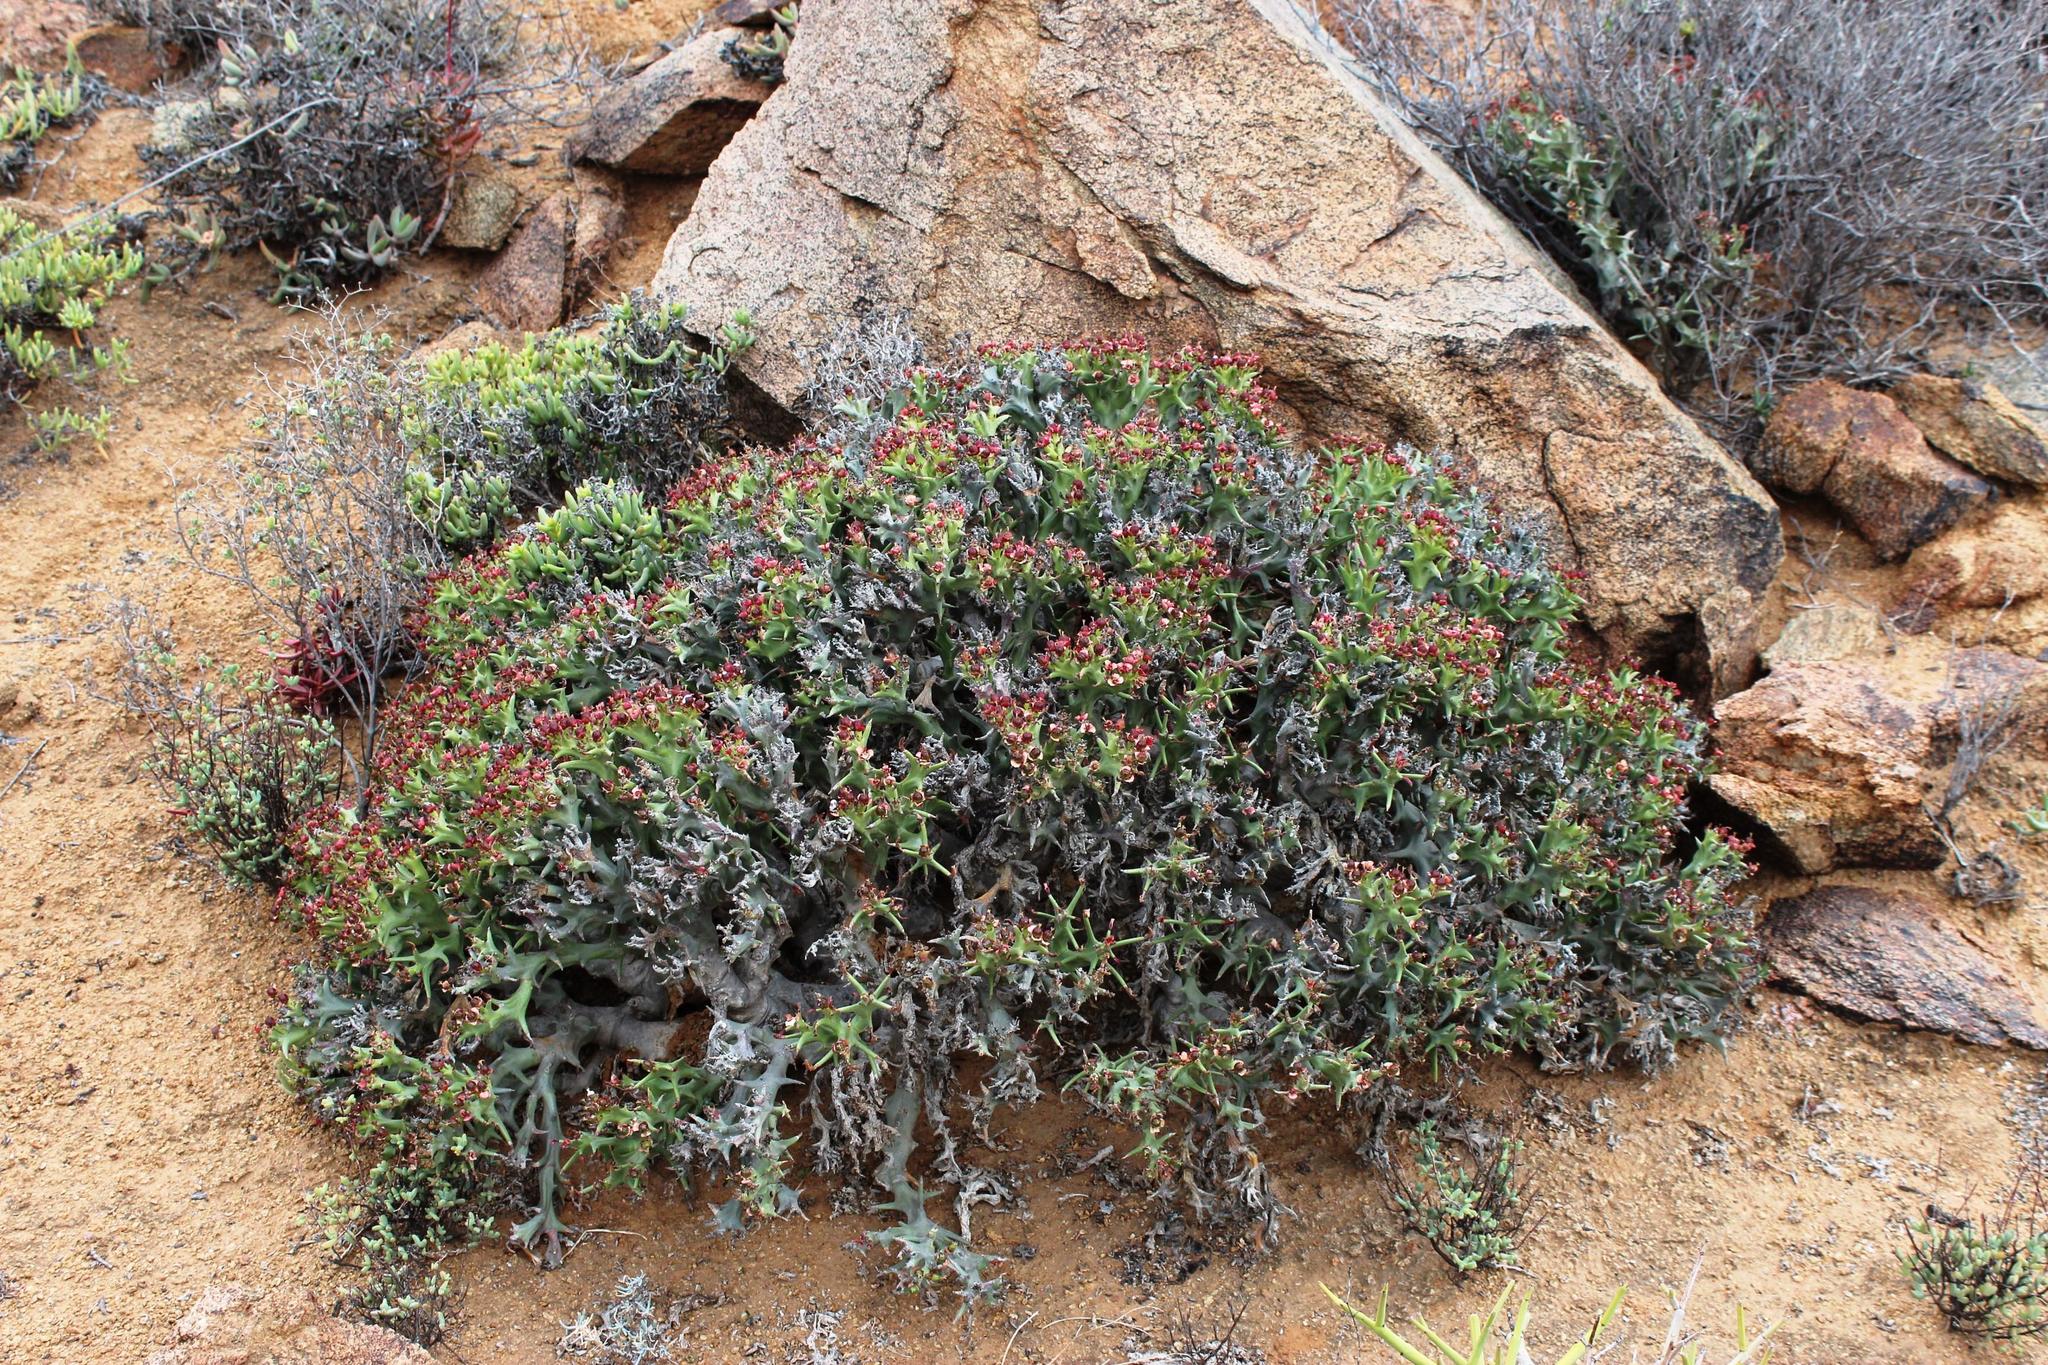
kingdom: Plantae
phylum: Tracheophyta
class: Magnoliopsida
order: Malpighiales
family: Euphorbiaceae
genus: Euphorbia
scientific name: Euphorbia hamata
